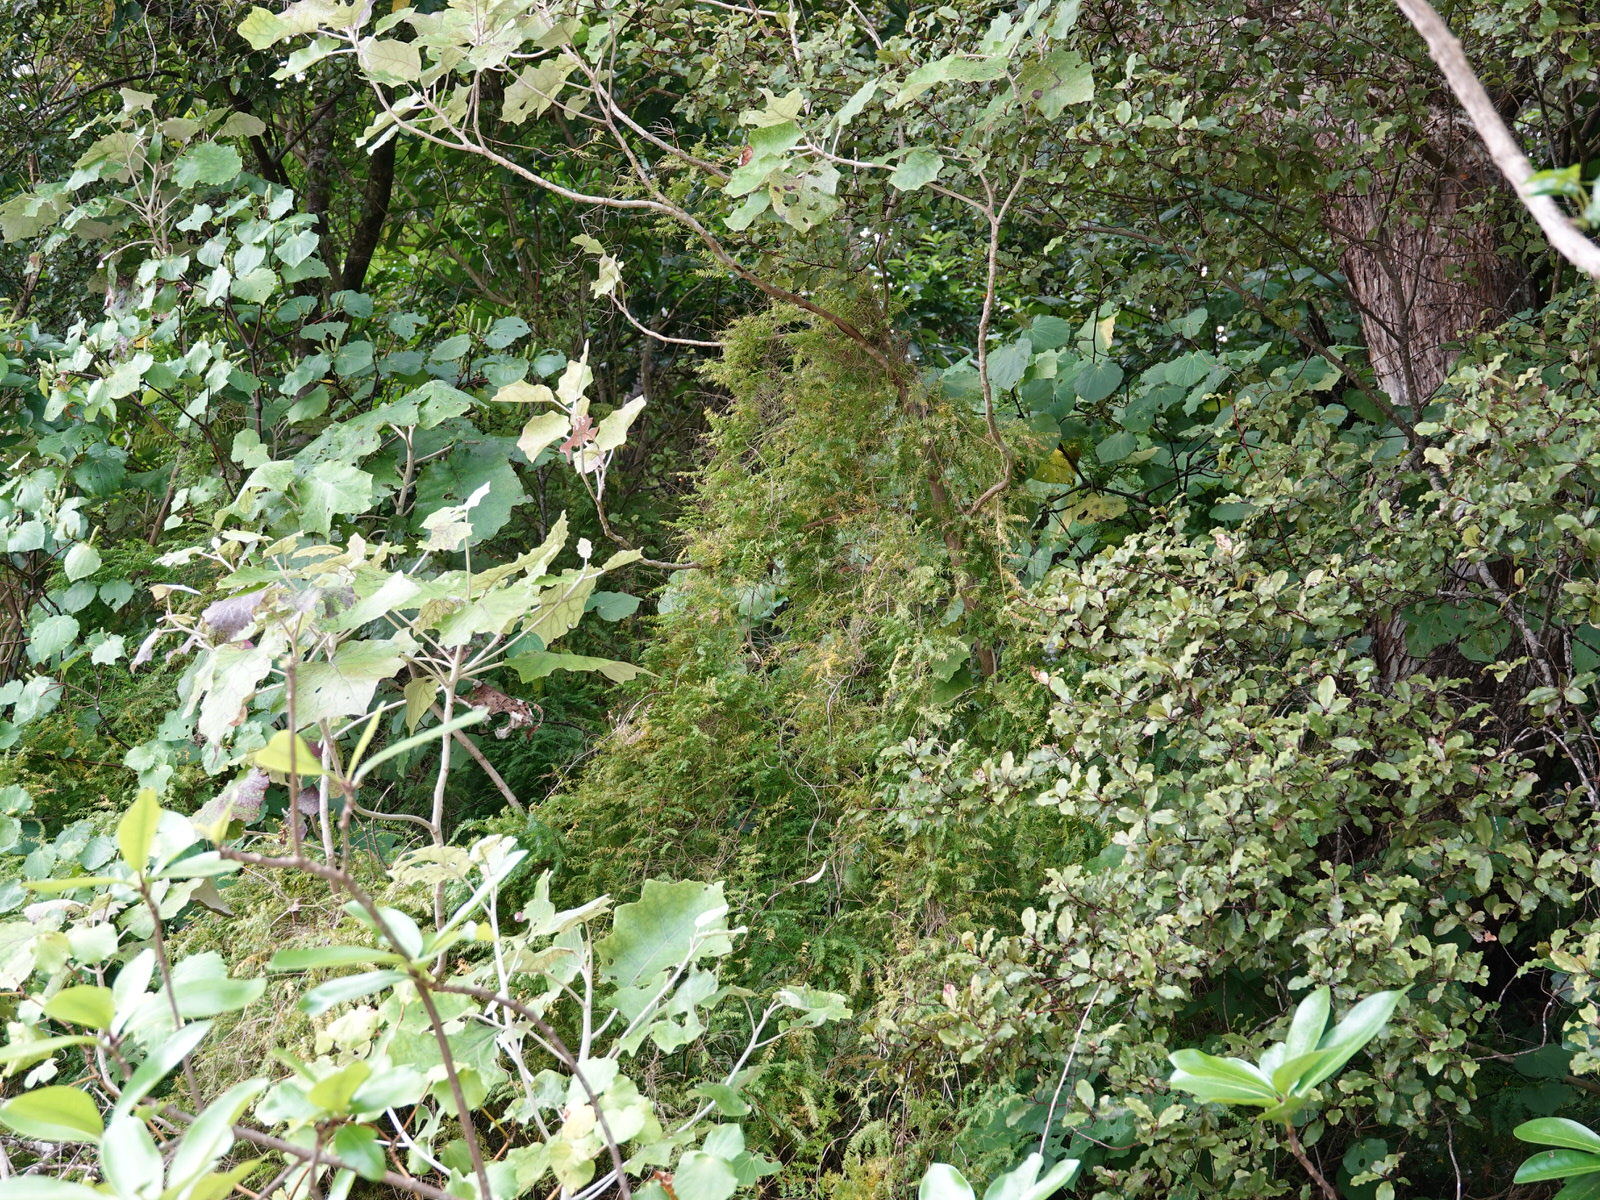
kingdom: Plantae
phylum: Tracheophyta
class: Liliopsida
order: Asparagales
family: Asparagaceae
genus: Asparagus
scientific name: Asparagus scandens
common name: Asparagus-fern
